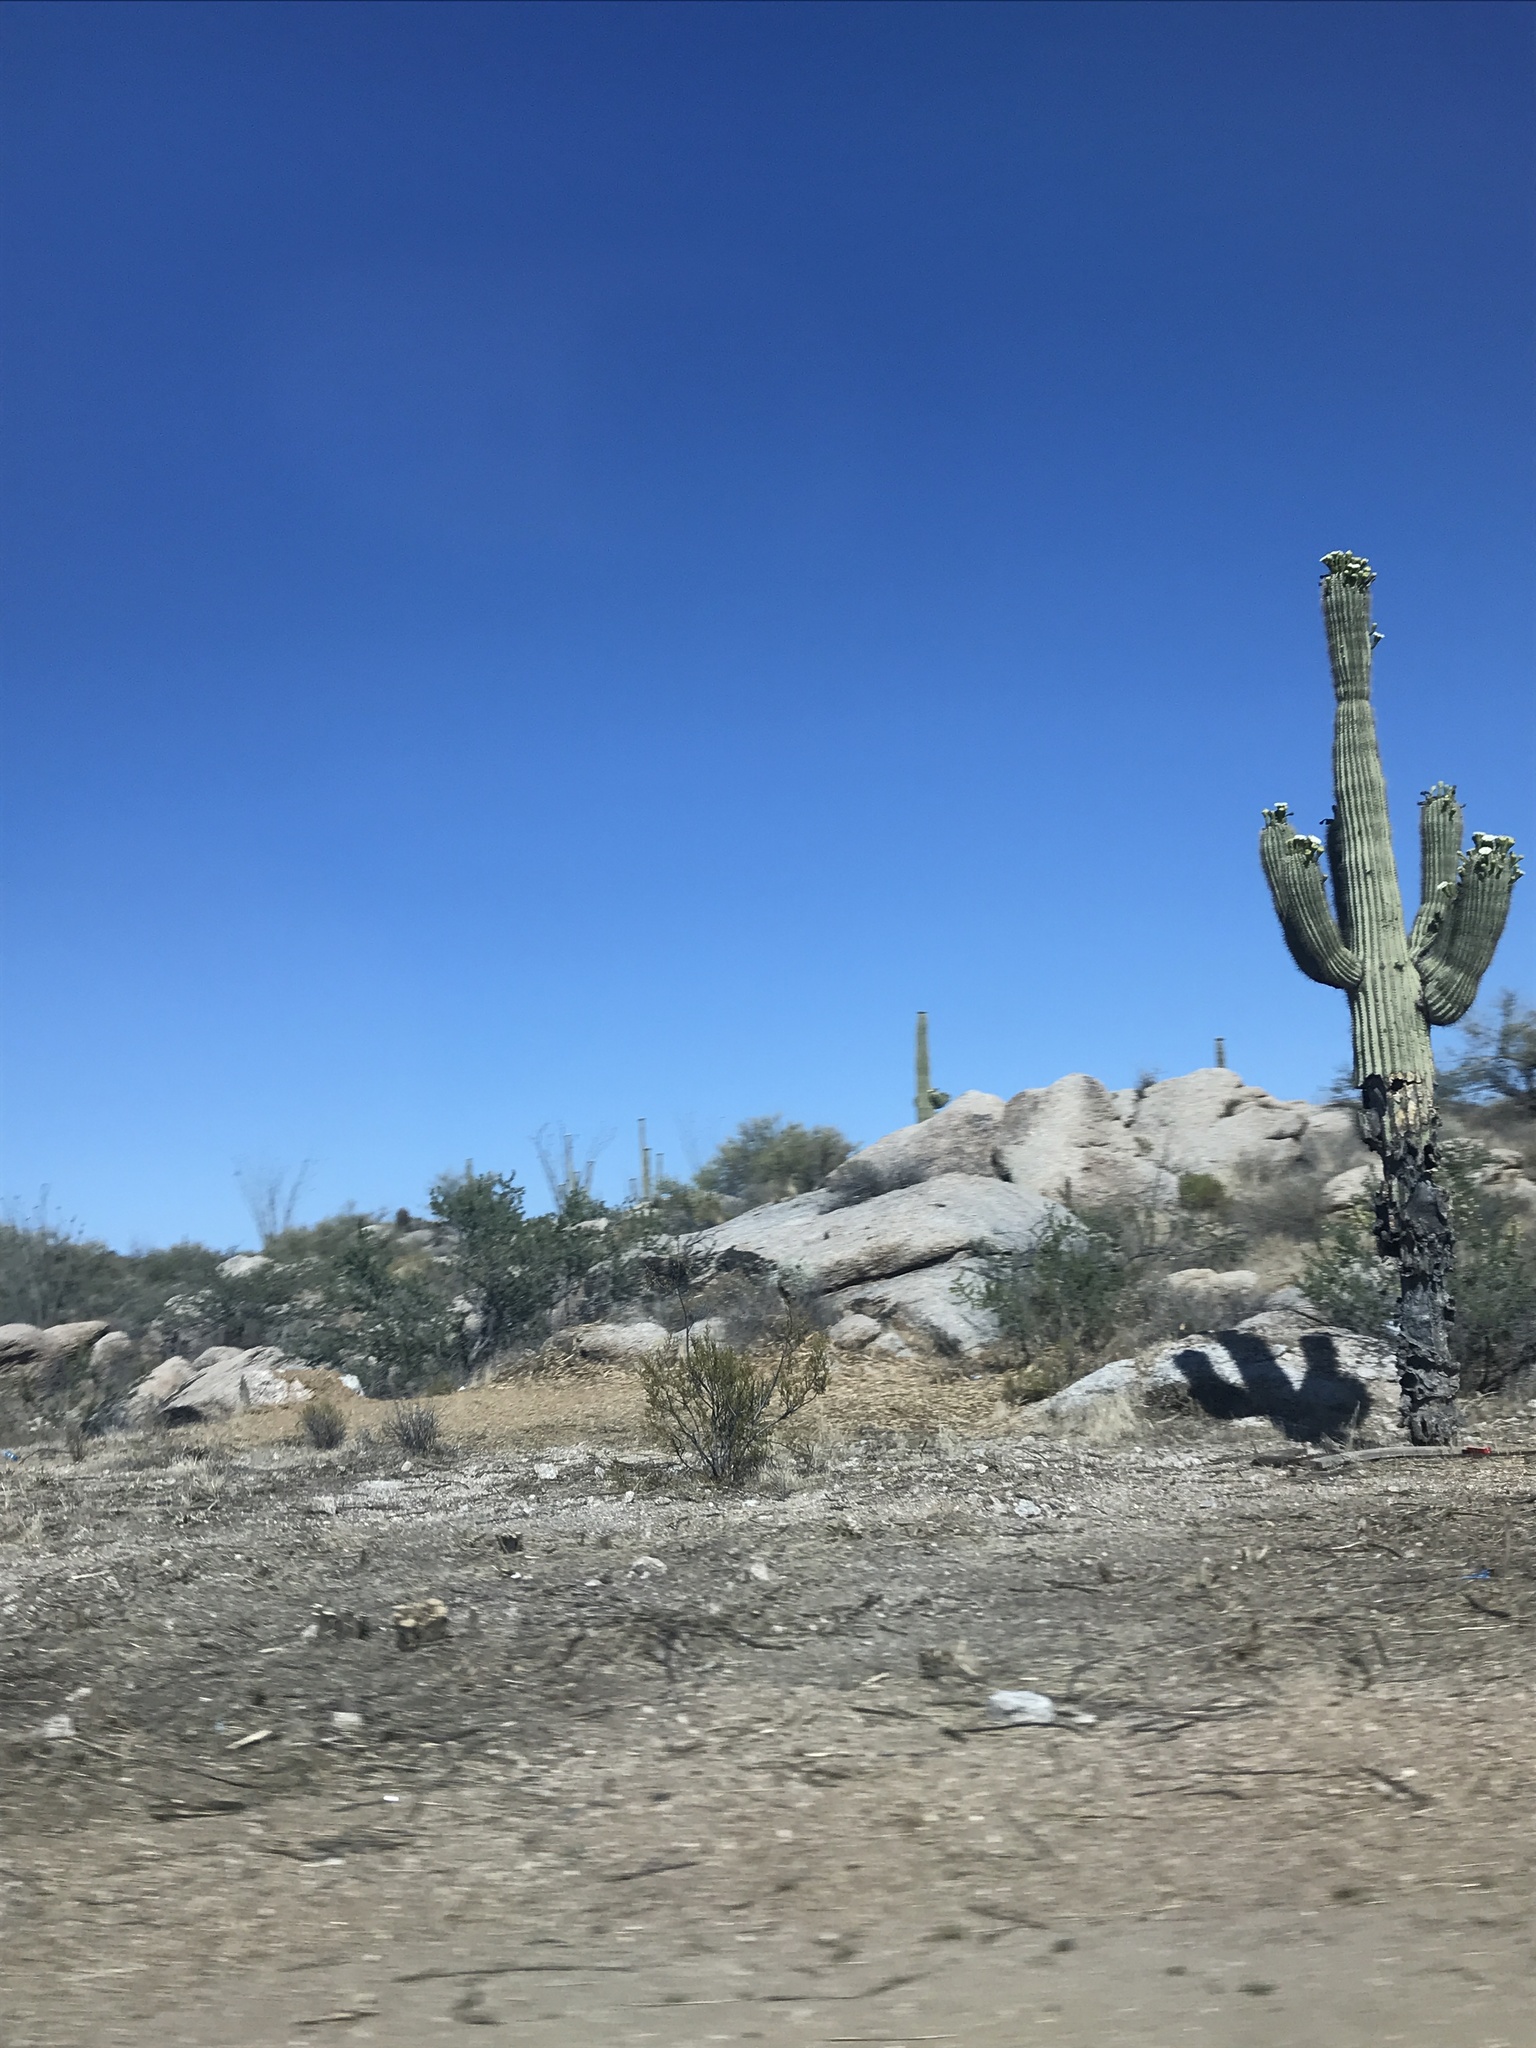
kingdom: Plantae
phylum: Tracheophyta
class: Magnoliopsida
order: Caryophyllales
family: Cactaceae
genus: Carnegiea
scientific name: Carnegiea gigantea
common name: Saguaro
